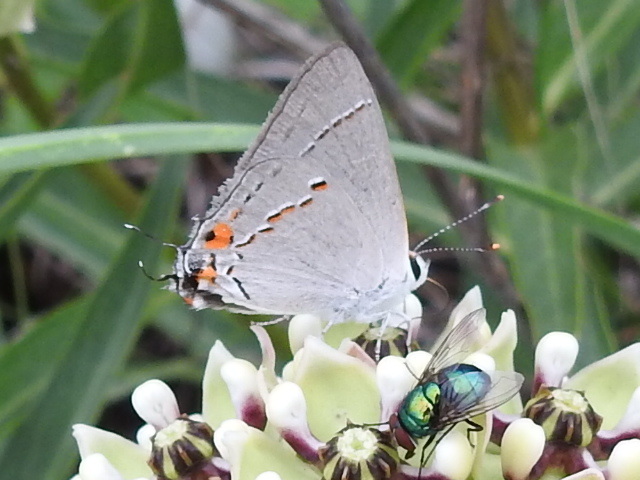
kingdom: Animalia
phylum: Arthropoda
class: Insecta
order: Lepidoptera
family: Lycaenidae
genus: Strymon
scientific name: Strymon melinus
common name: Gray hairstreak
